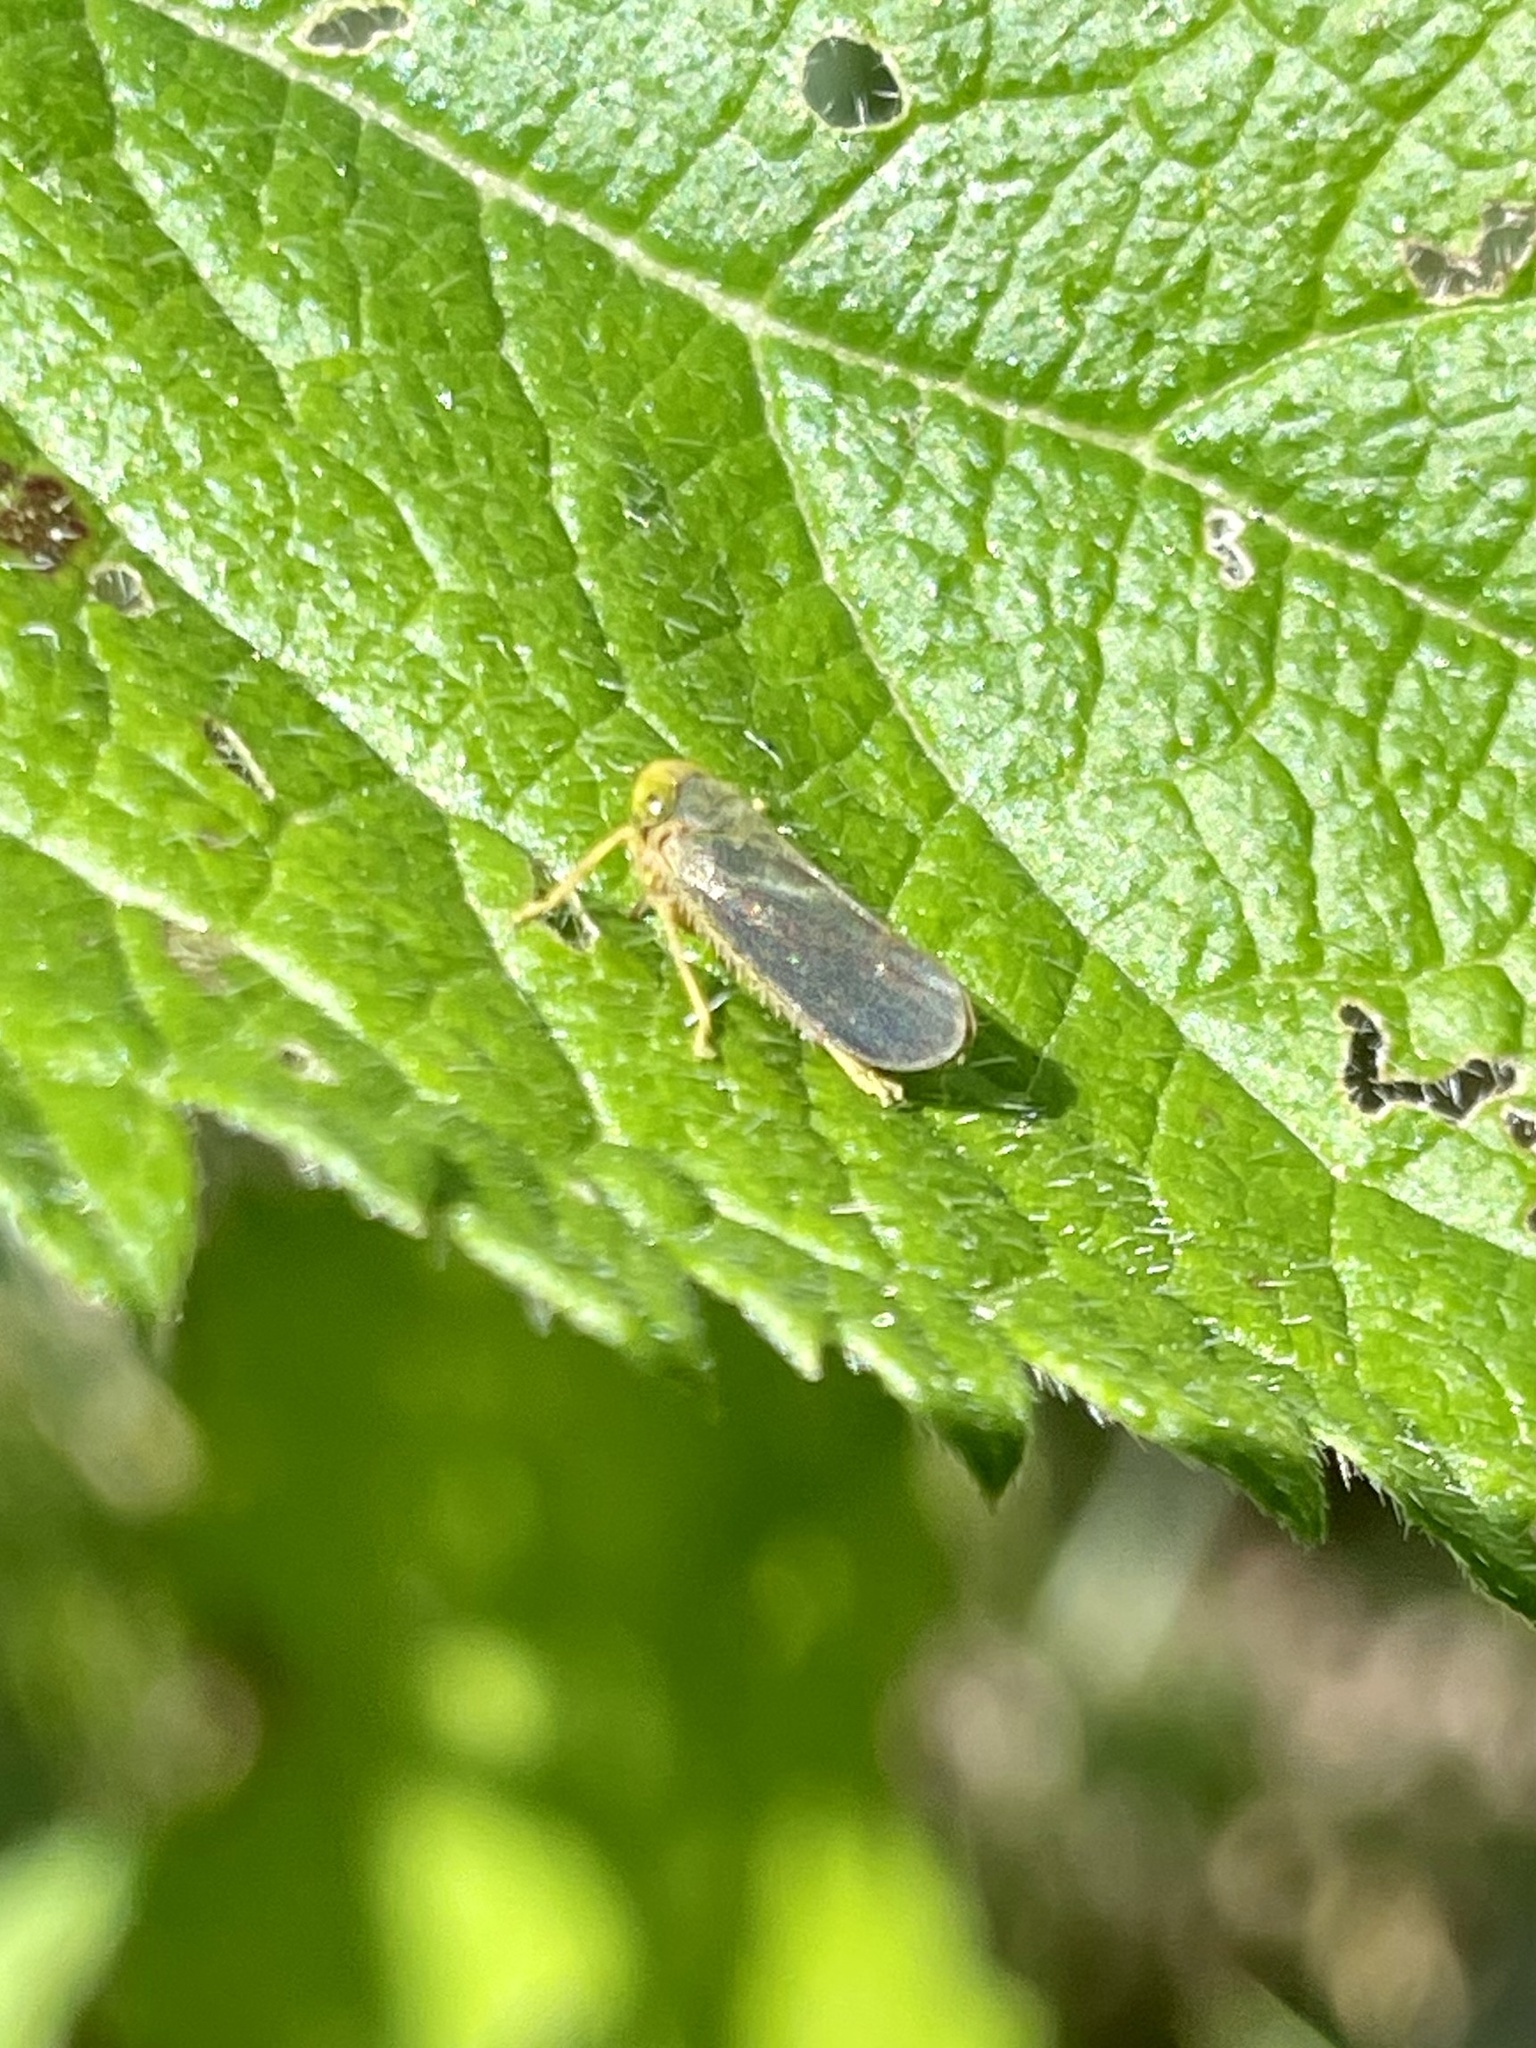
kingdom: Animalia
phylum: Arthropoda
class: Insecta
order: Hemiptera
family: Cicadellidae
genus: Jikradia
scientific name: Jikradia olitoria
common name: Coppery leafhopper
